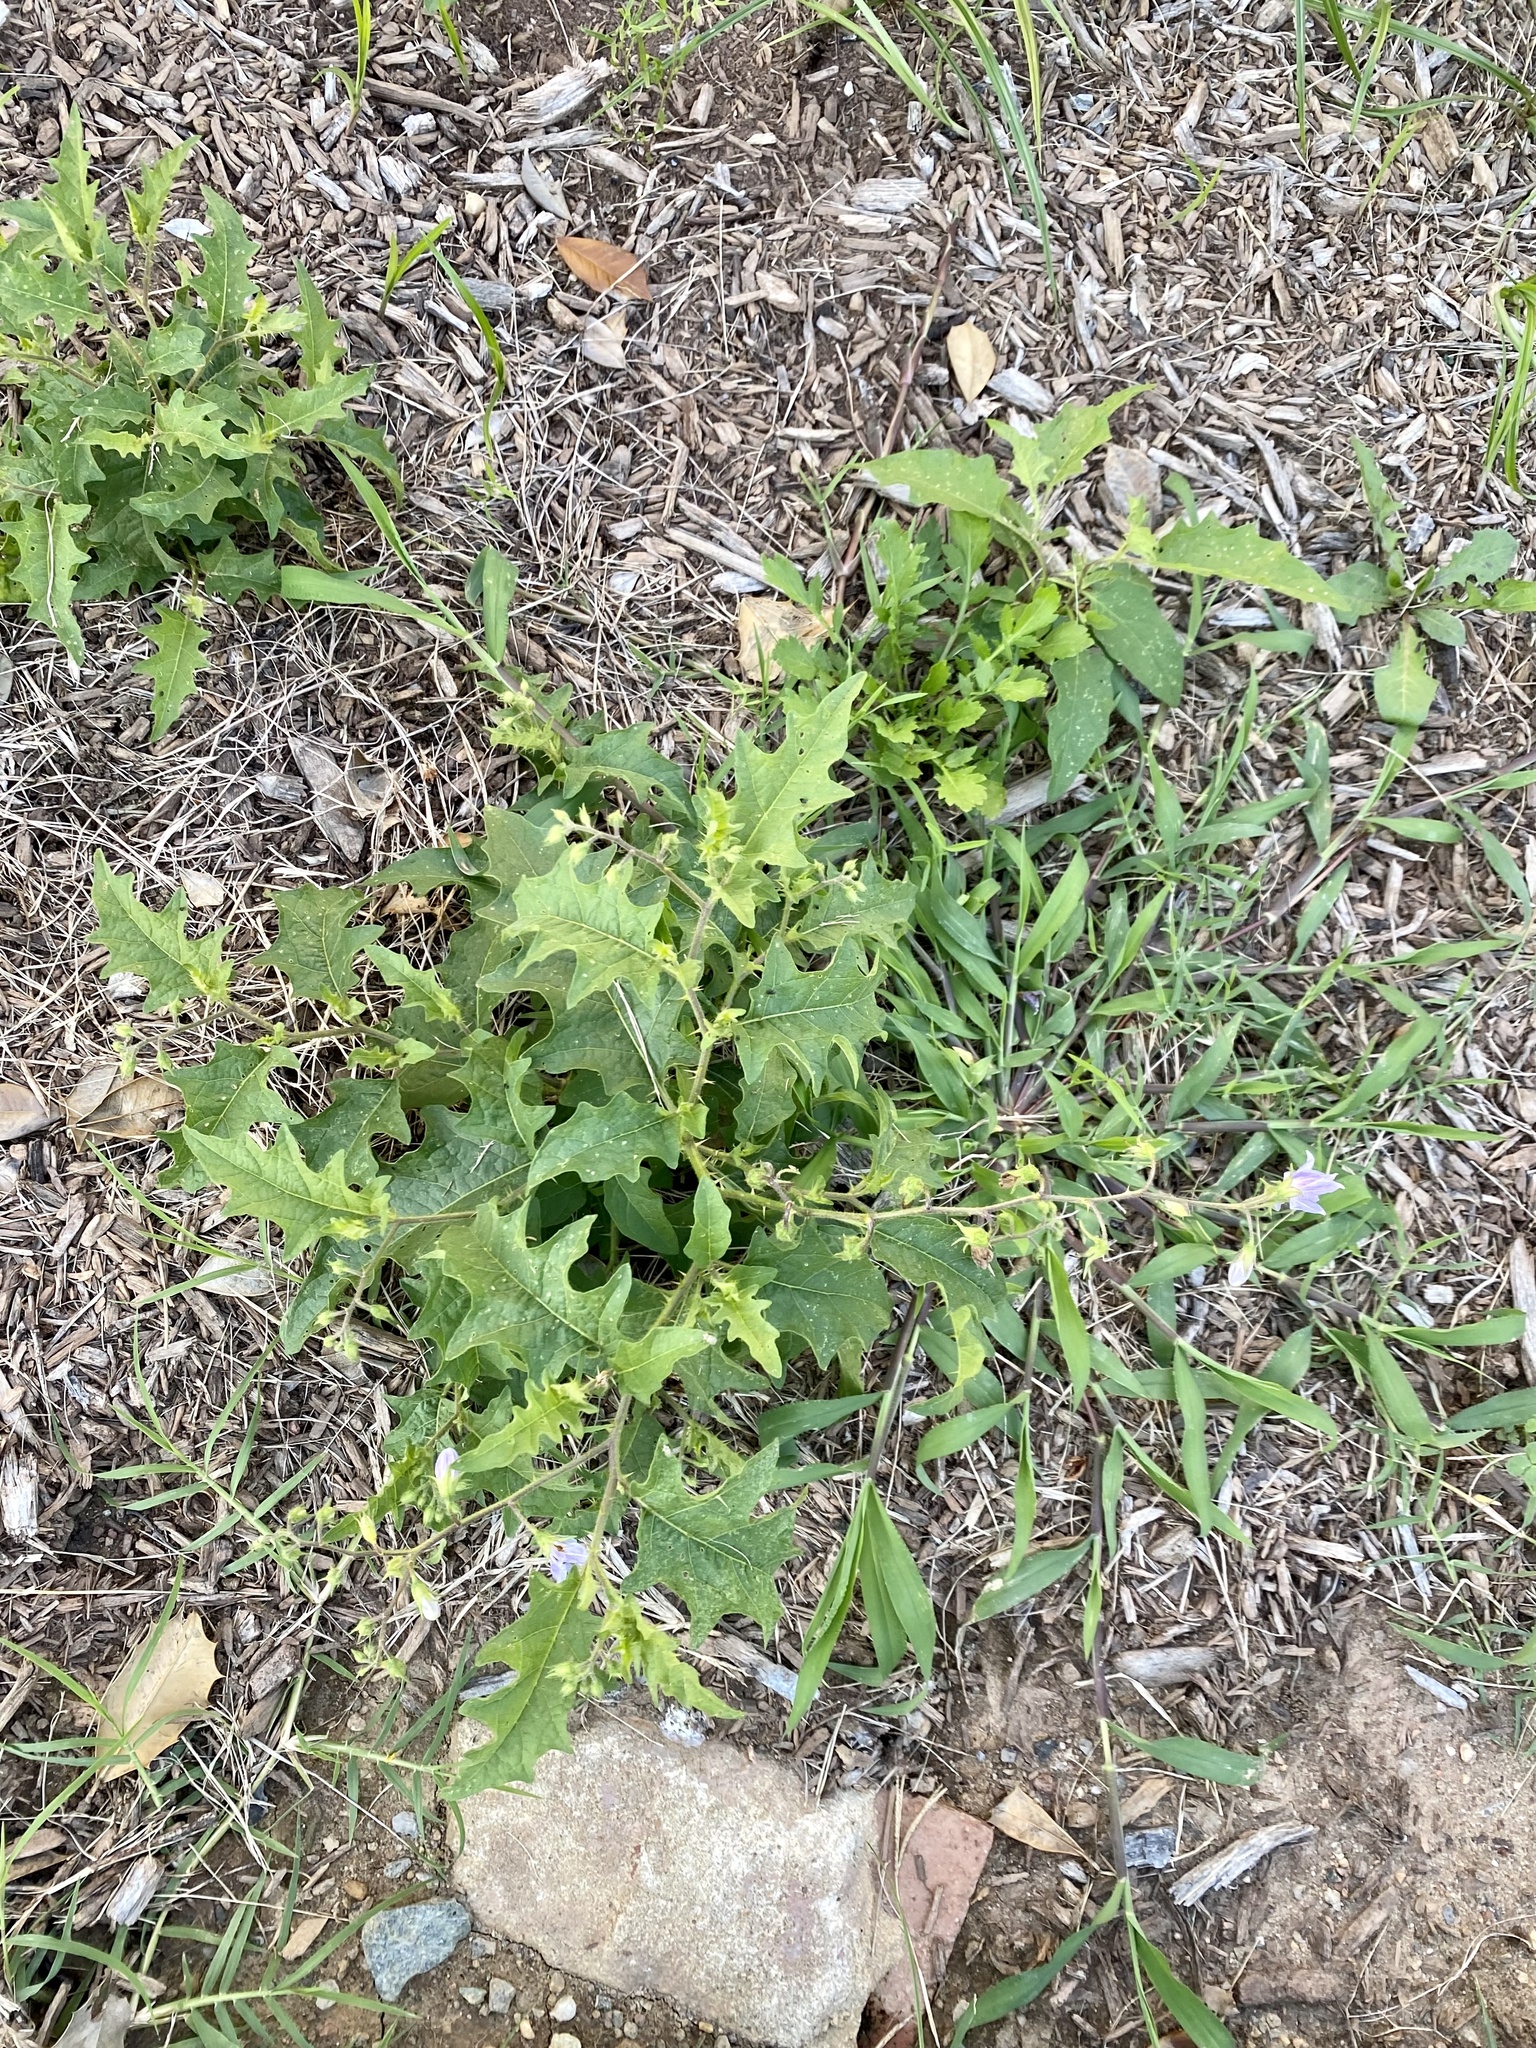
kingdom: Plantae
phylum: Tracheophyta
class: Magnoliopsida
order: Solanales
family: Solanaceae
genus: Solanum
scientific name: Solanum carolinense
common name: Horse-nettle
